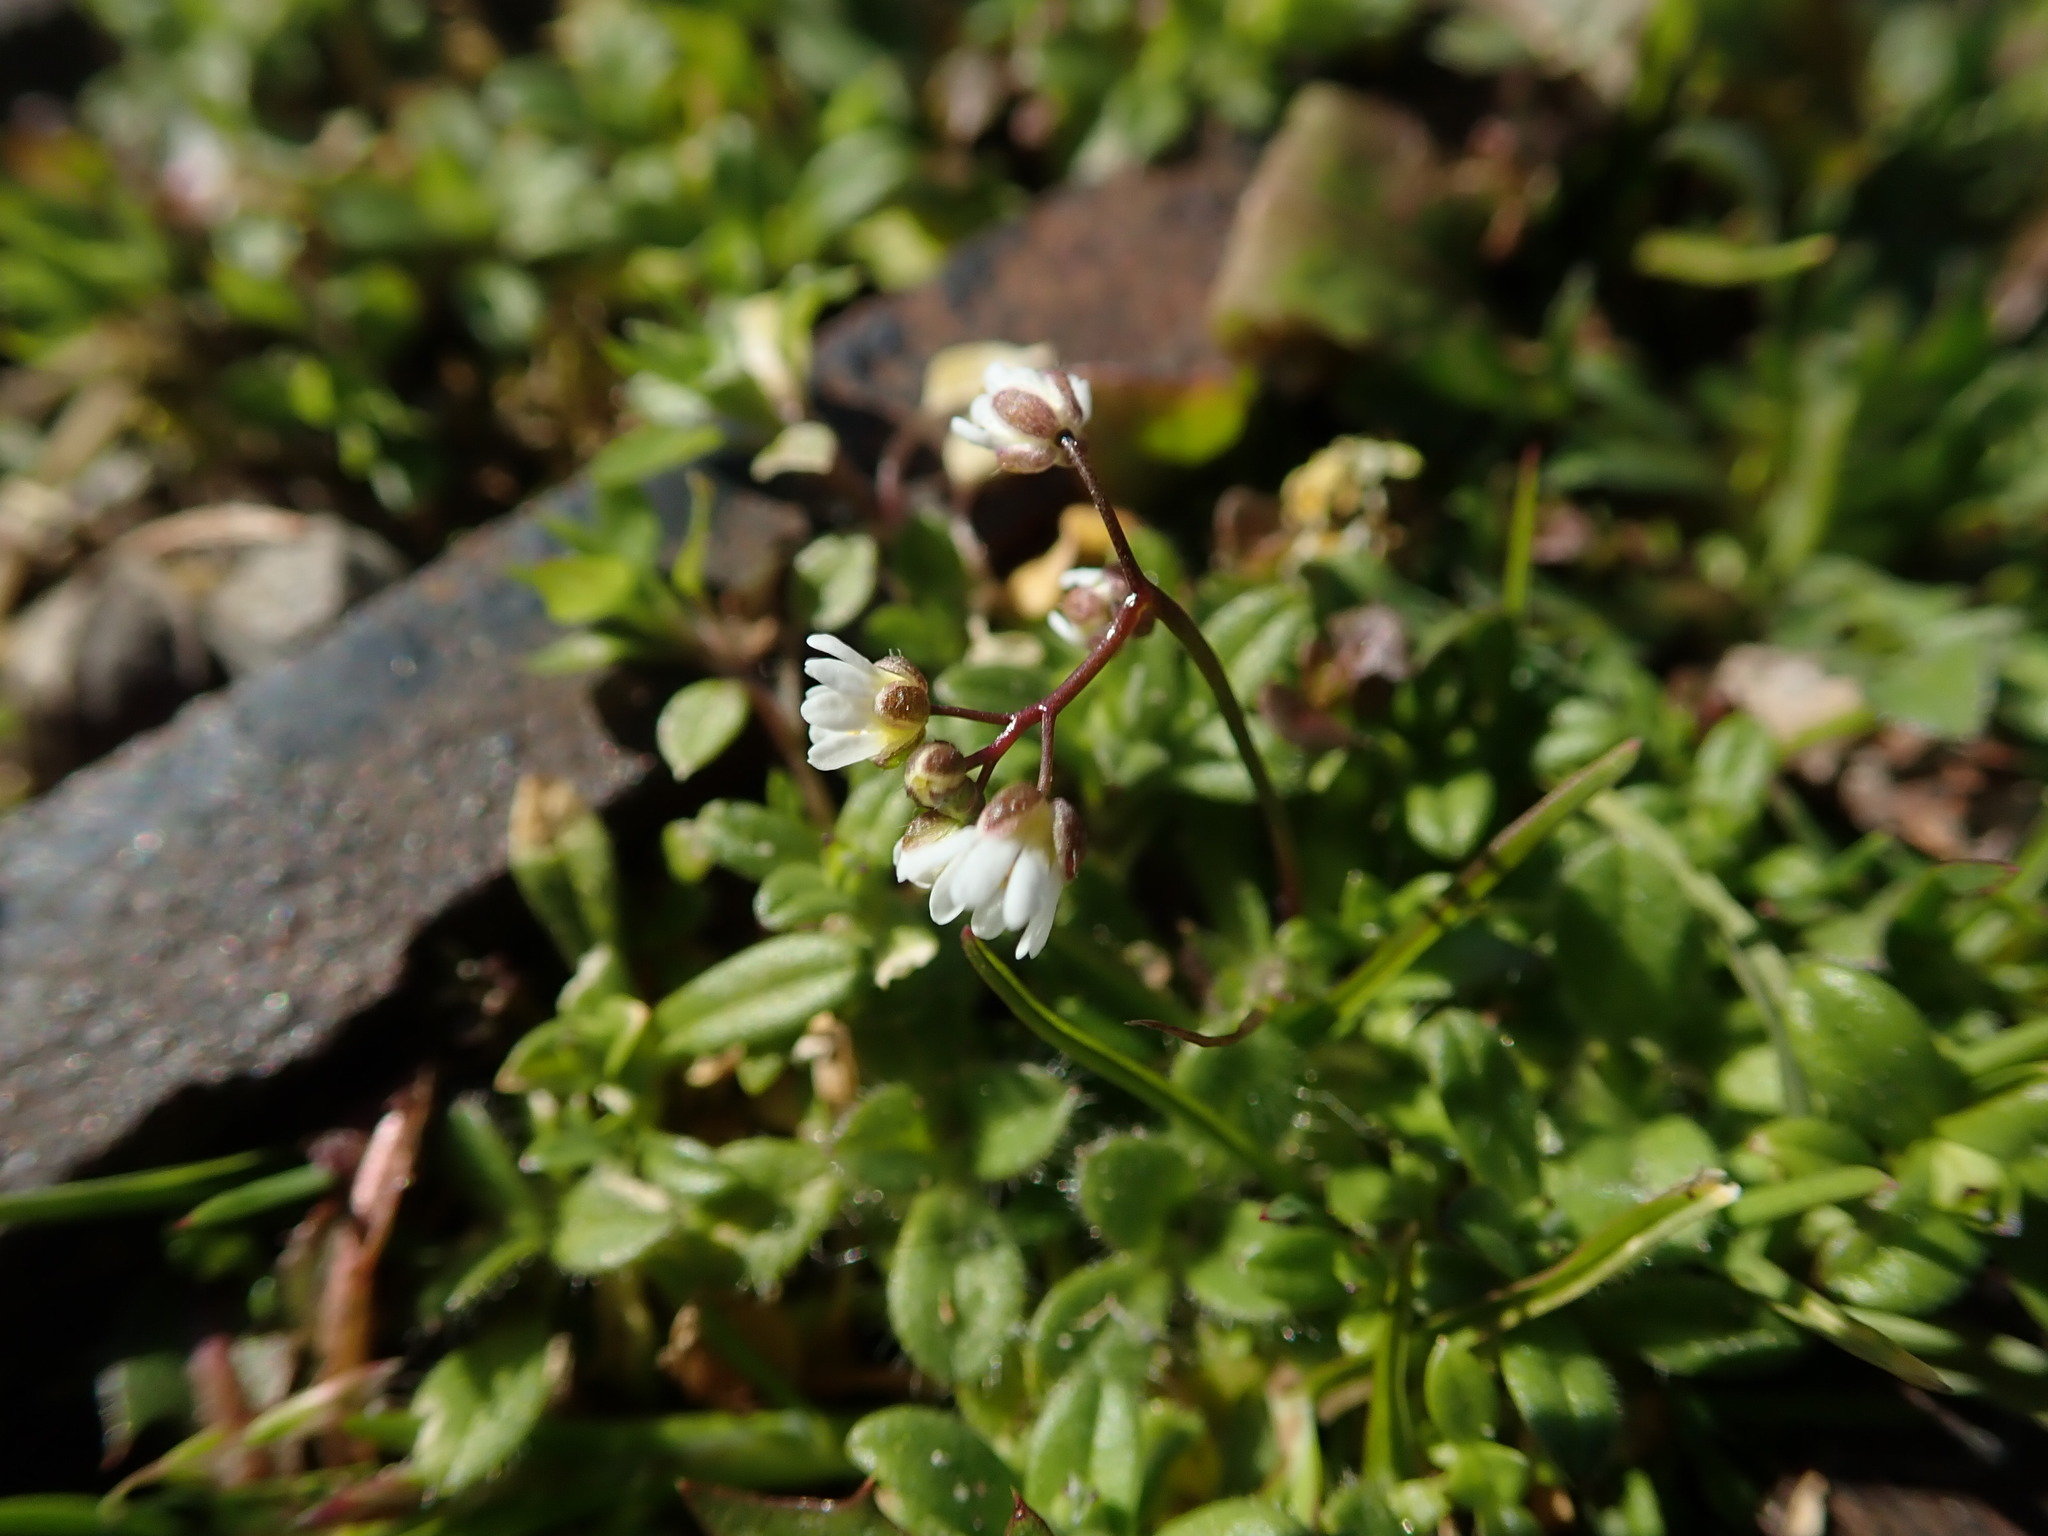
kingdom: Plantae
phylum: Tracheophyta
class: Magnoliopsida
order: Brassicales
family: Brassicaceae
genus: Draba
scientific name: Draba verna
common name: Spring draba
